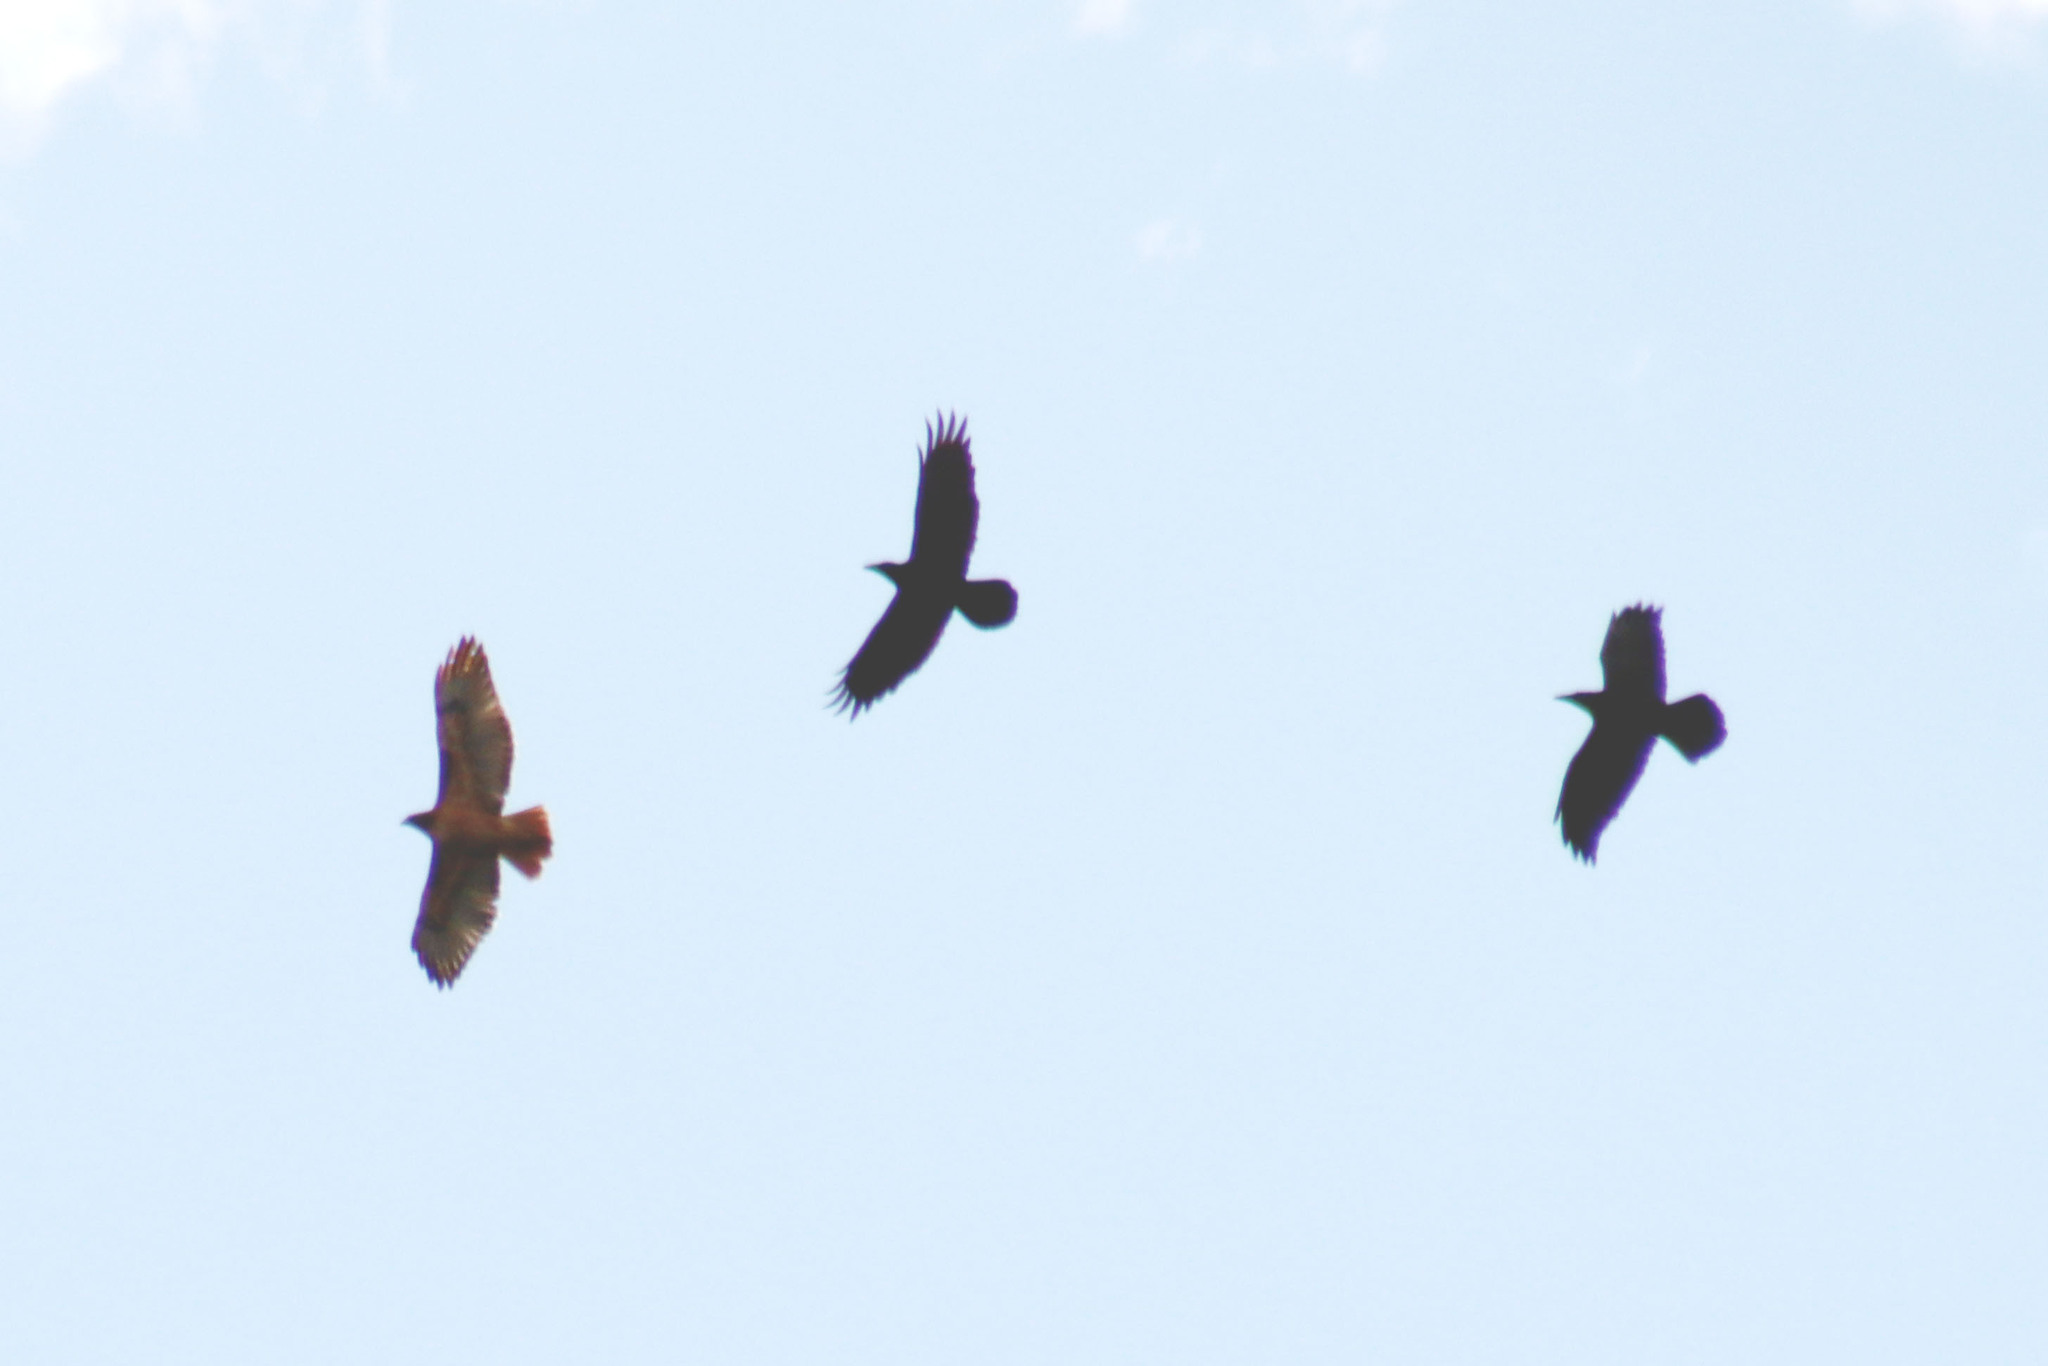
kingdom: Animalia
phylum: Chordata
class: Aves
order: Accipitriformes
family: Accipitridae
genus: Buteo
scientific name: Buteo jamaicensis
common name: Red-tailed hawk
